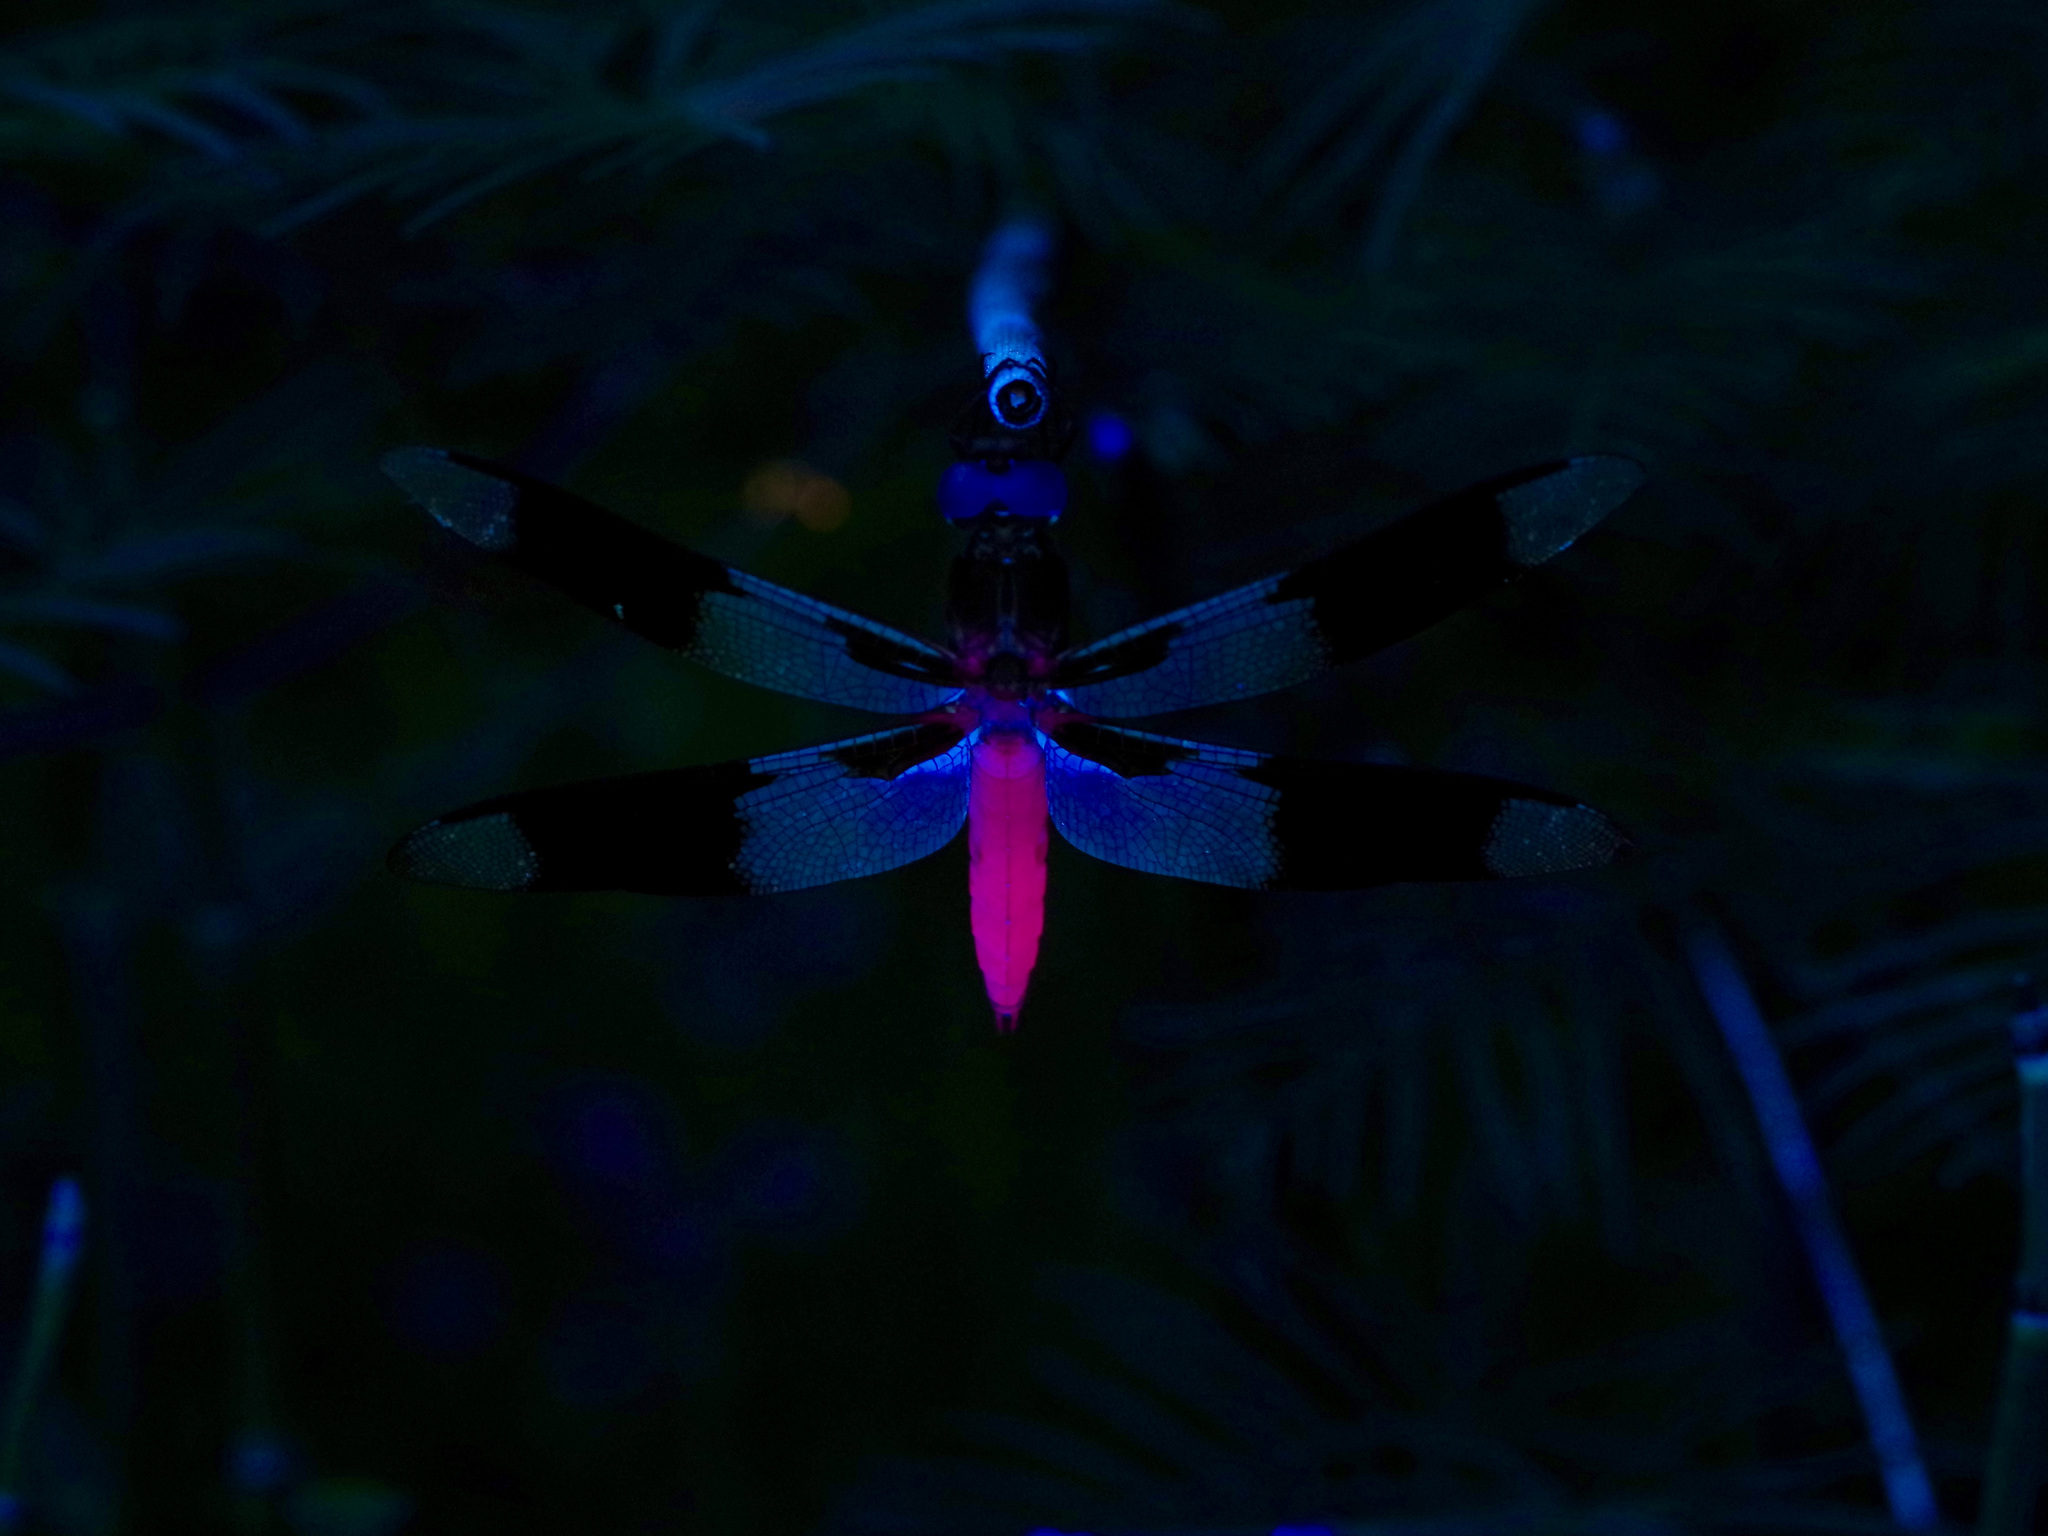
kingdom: Animalia
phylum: Arthropoda
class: Insecta
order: Odonata
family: Libellulidae
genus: Plathemis
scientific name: Plathemis lydia
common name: Common whitetail
